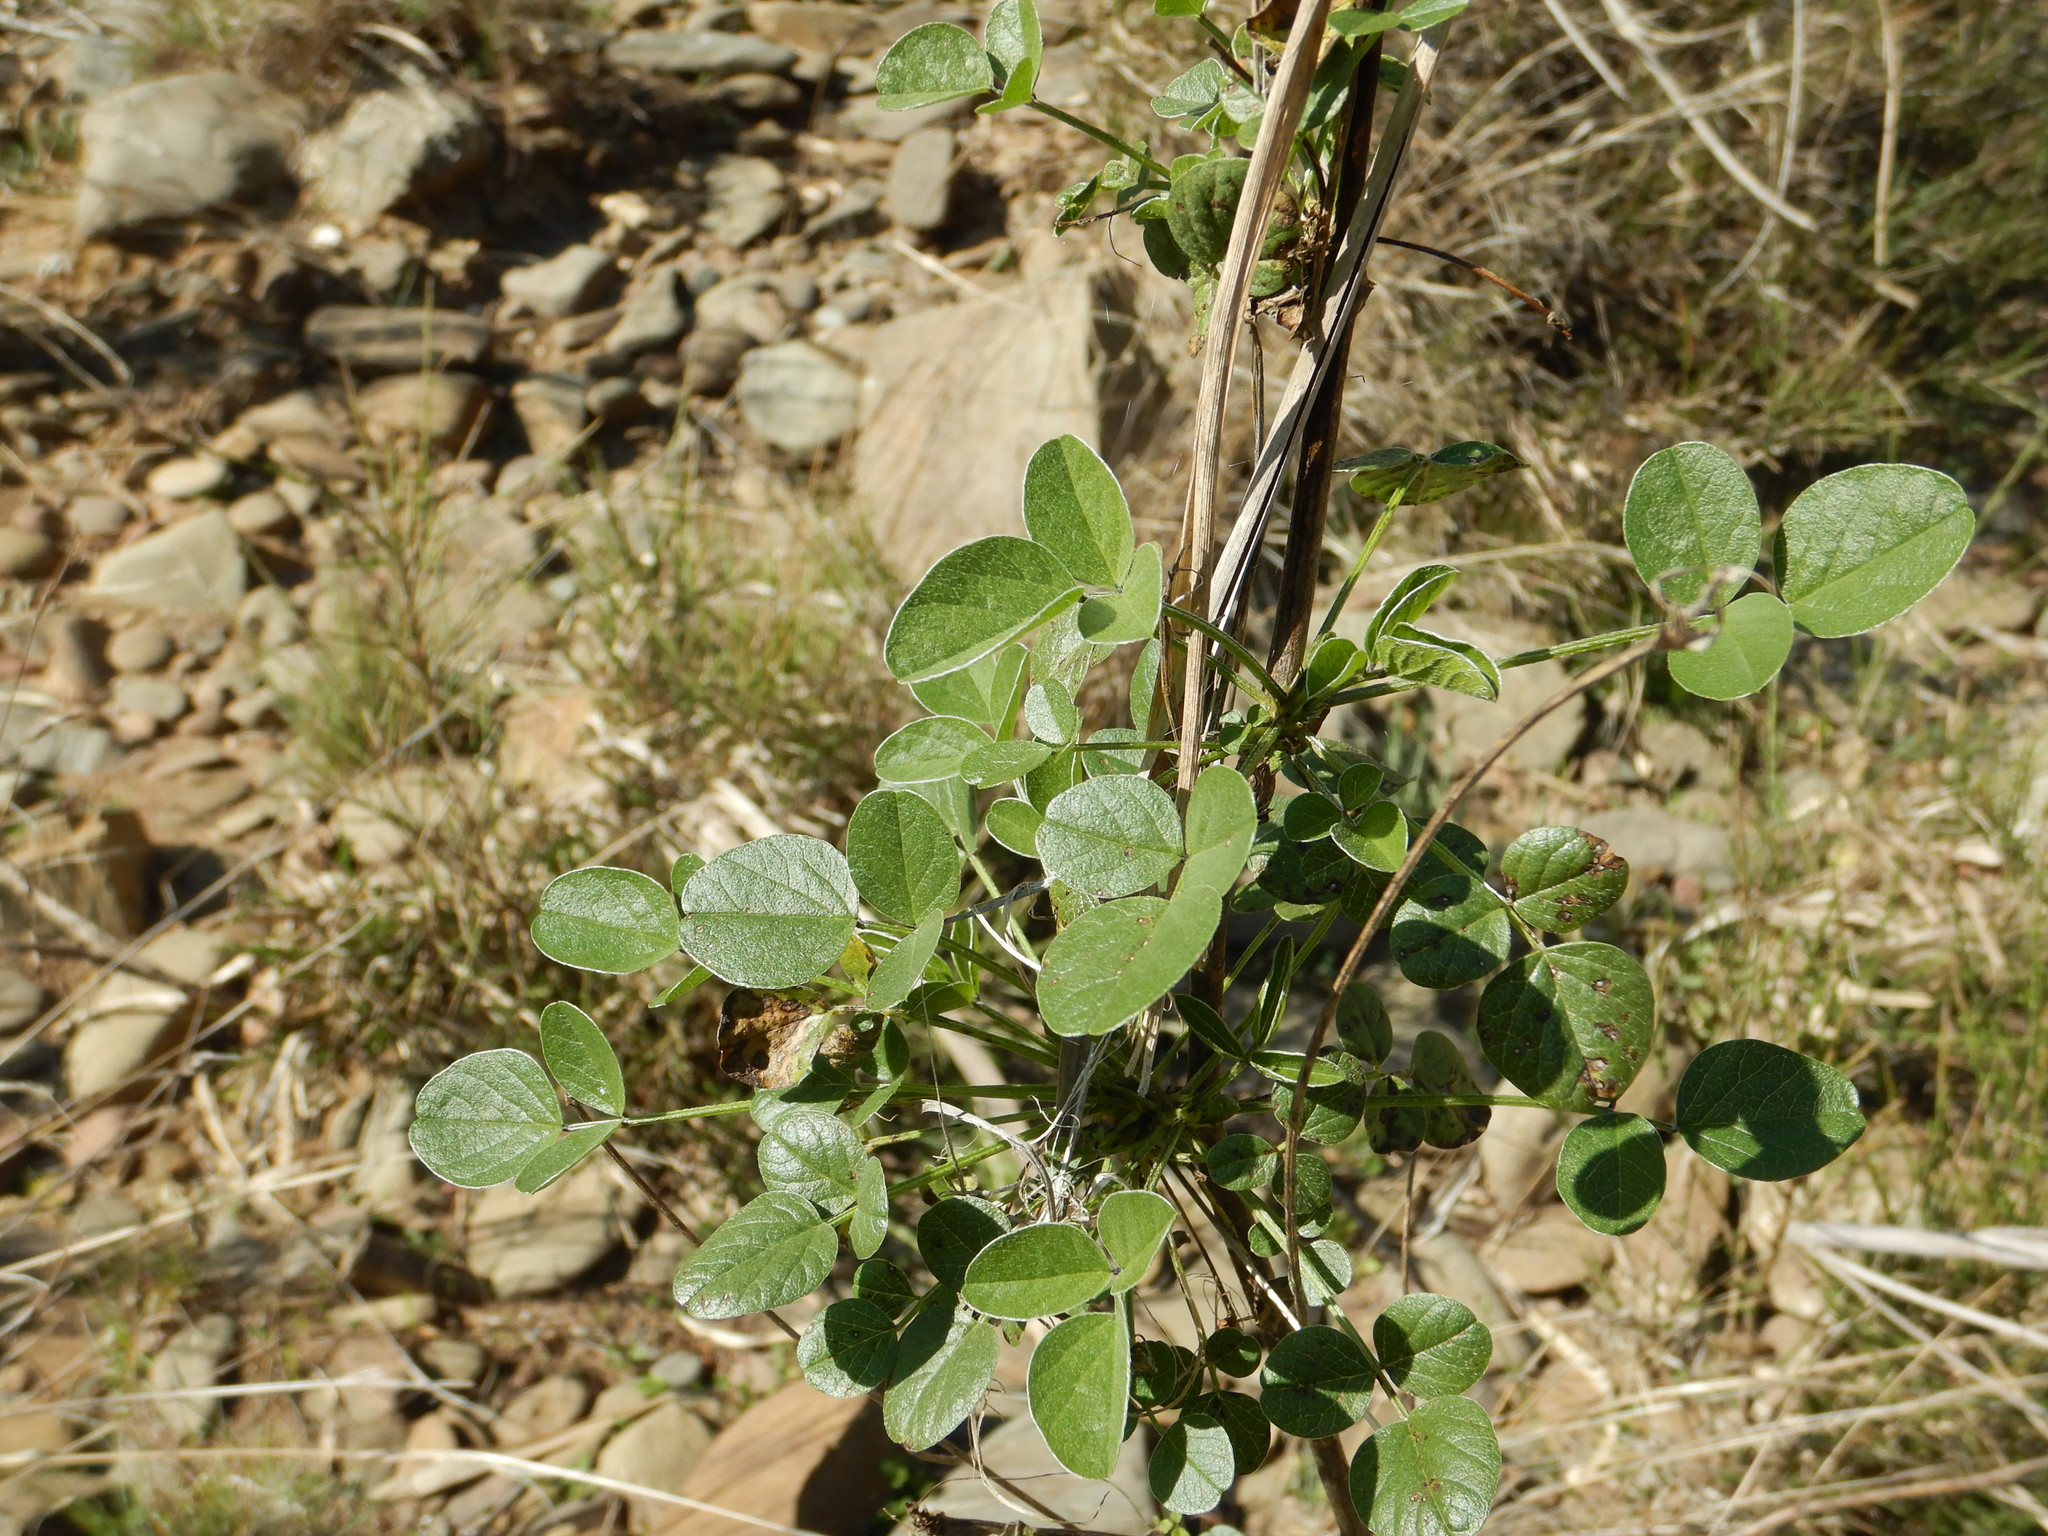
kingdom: Plantae
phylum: Tracheophyta
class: Magnoliopsida
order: Fabales
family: Fabaceae
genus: Bituminaria
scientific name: Bituminaria bituminosa
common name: Arabian pea
